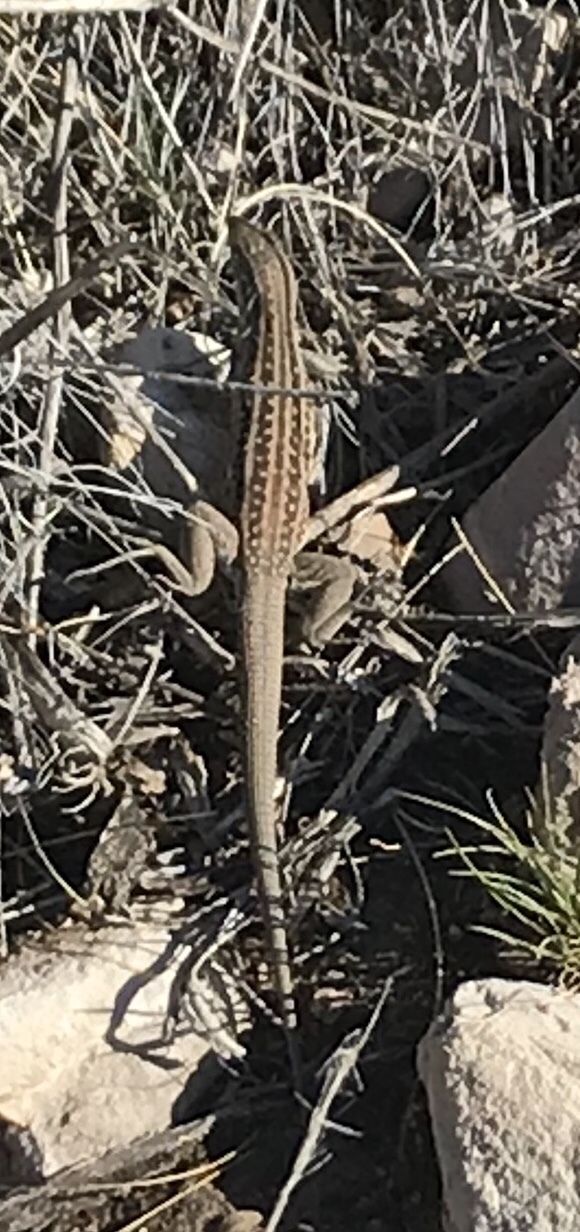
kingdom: Animalia
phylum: Chordata
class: Squamata
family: Teiidae
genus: Aspidoscelis
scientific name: Aspidoscelis exsanguis
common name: Chihuahuan spotted whiptail
